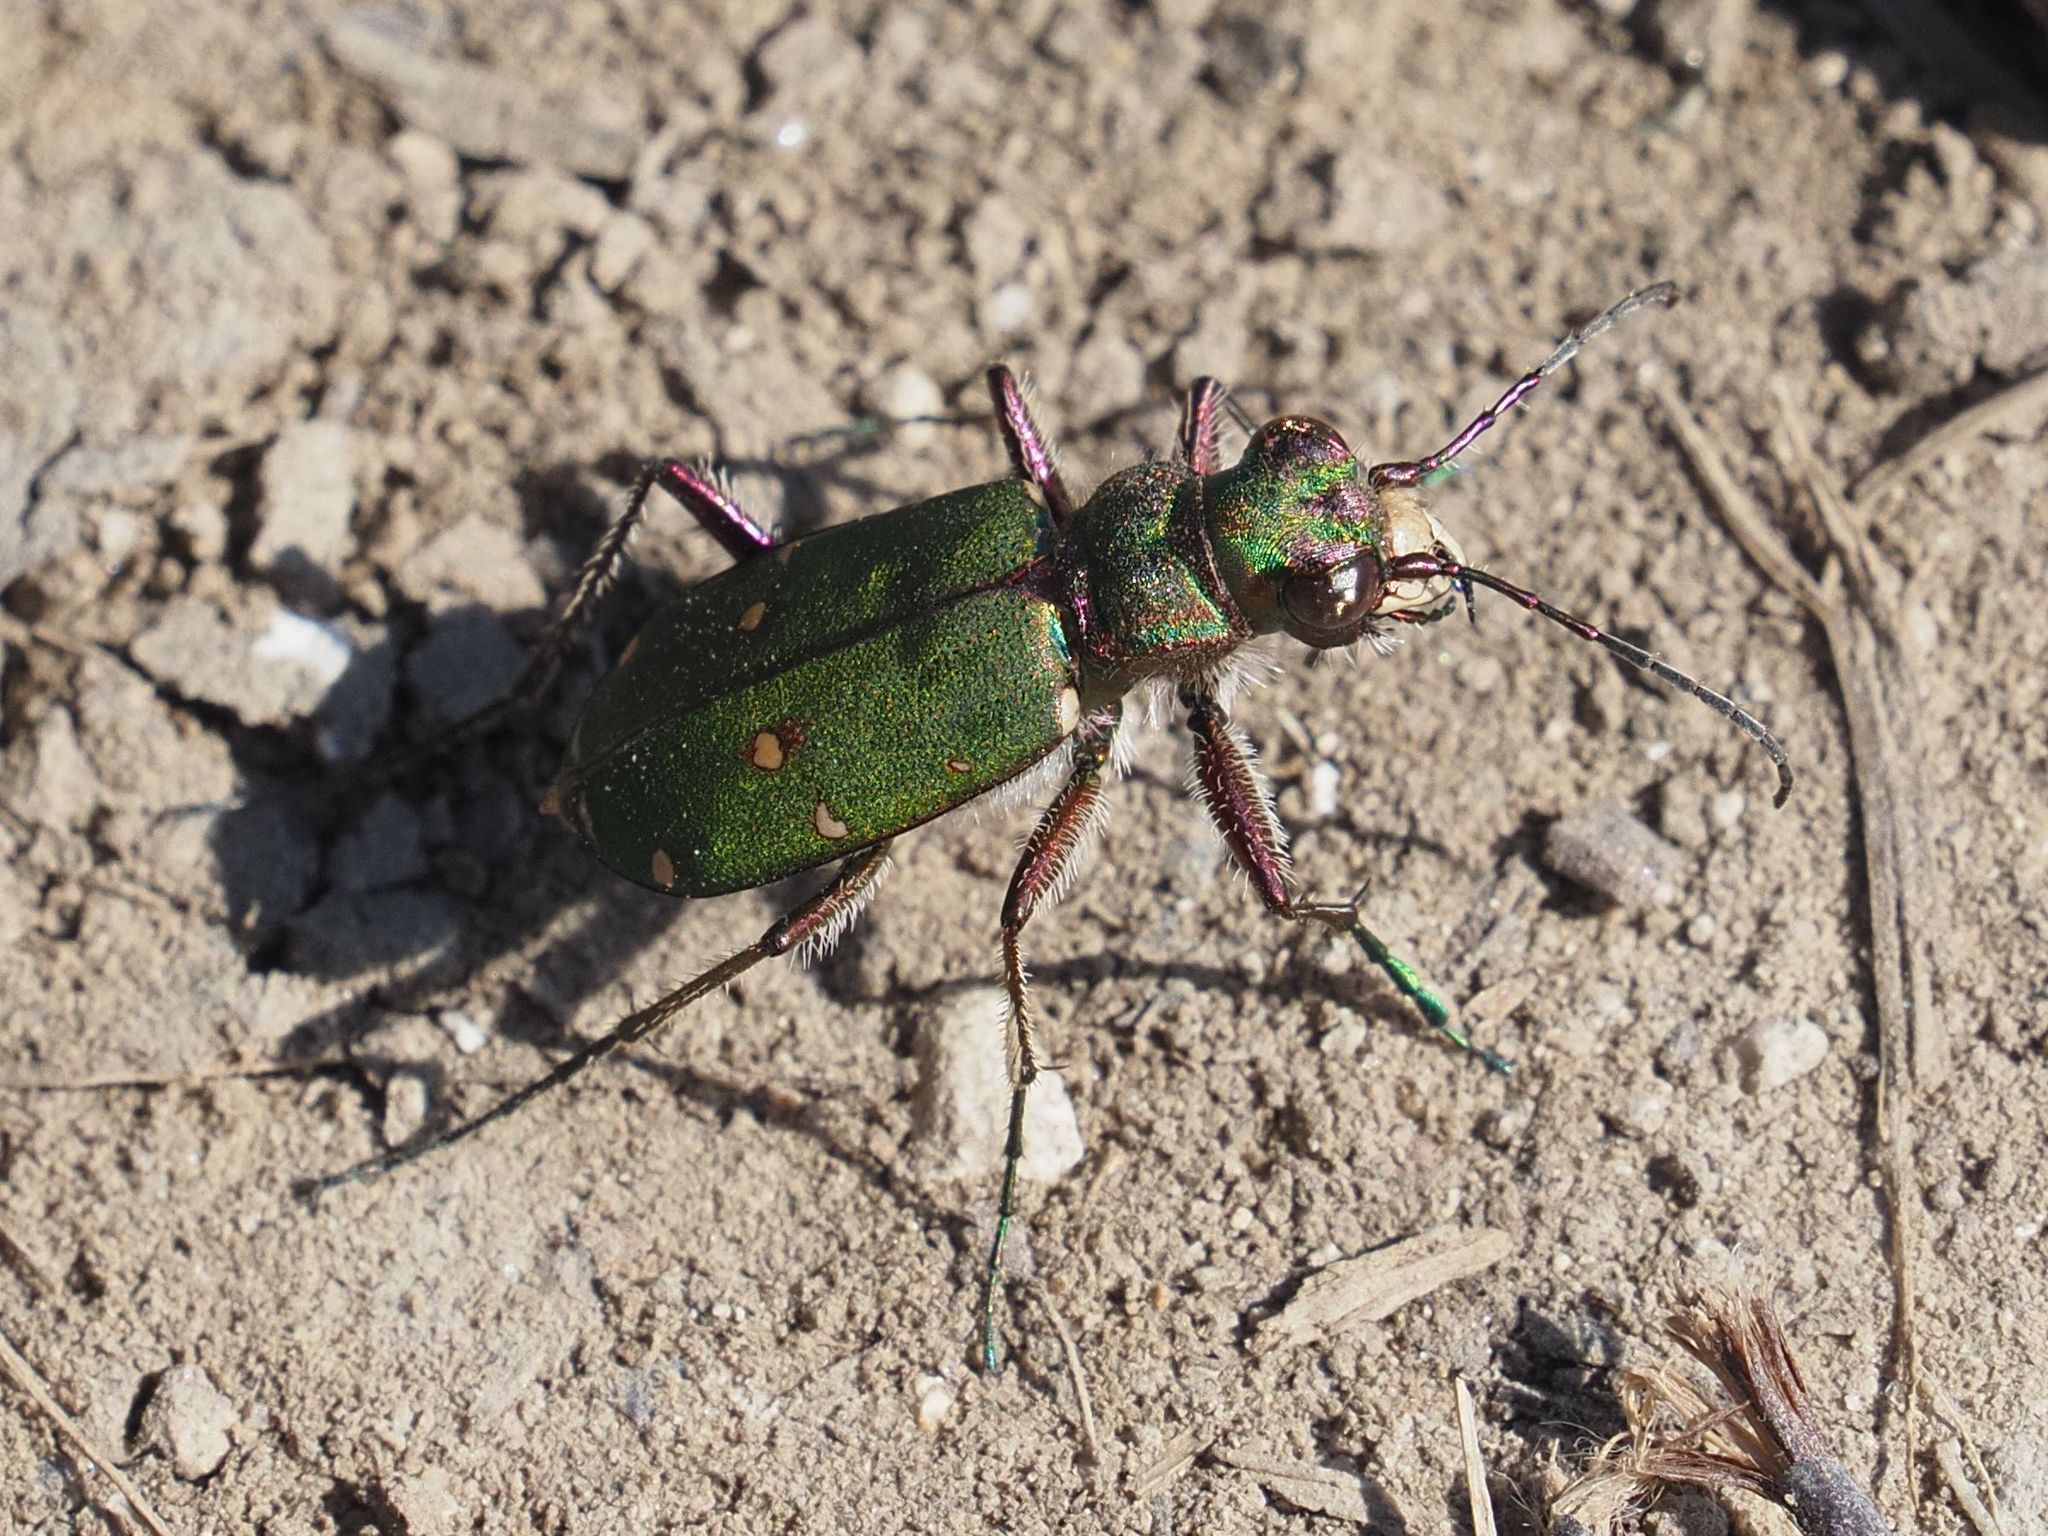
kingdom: Animalia
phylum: Arthropoda
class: Insecta
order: Coleoptera
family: Carabidae
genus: Cicindela
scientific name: Cicindela campestris
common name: Common tiger beetle
